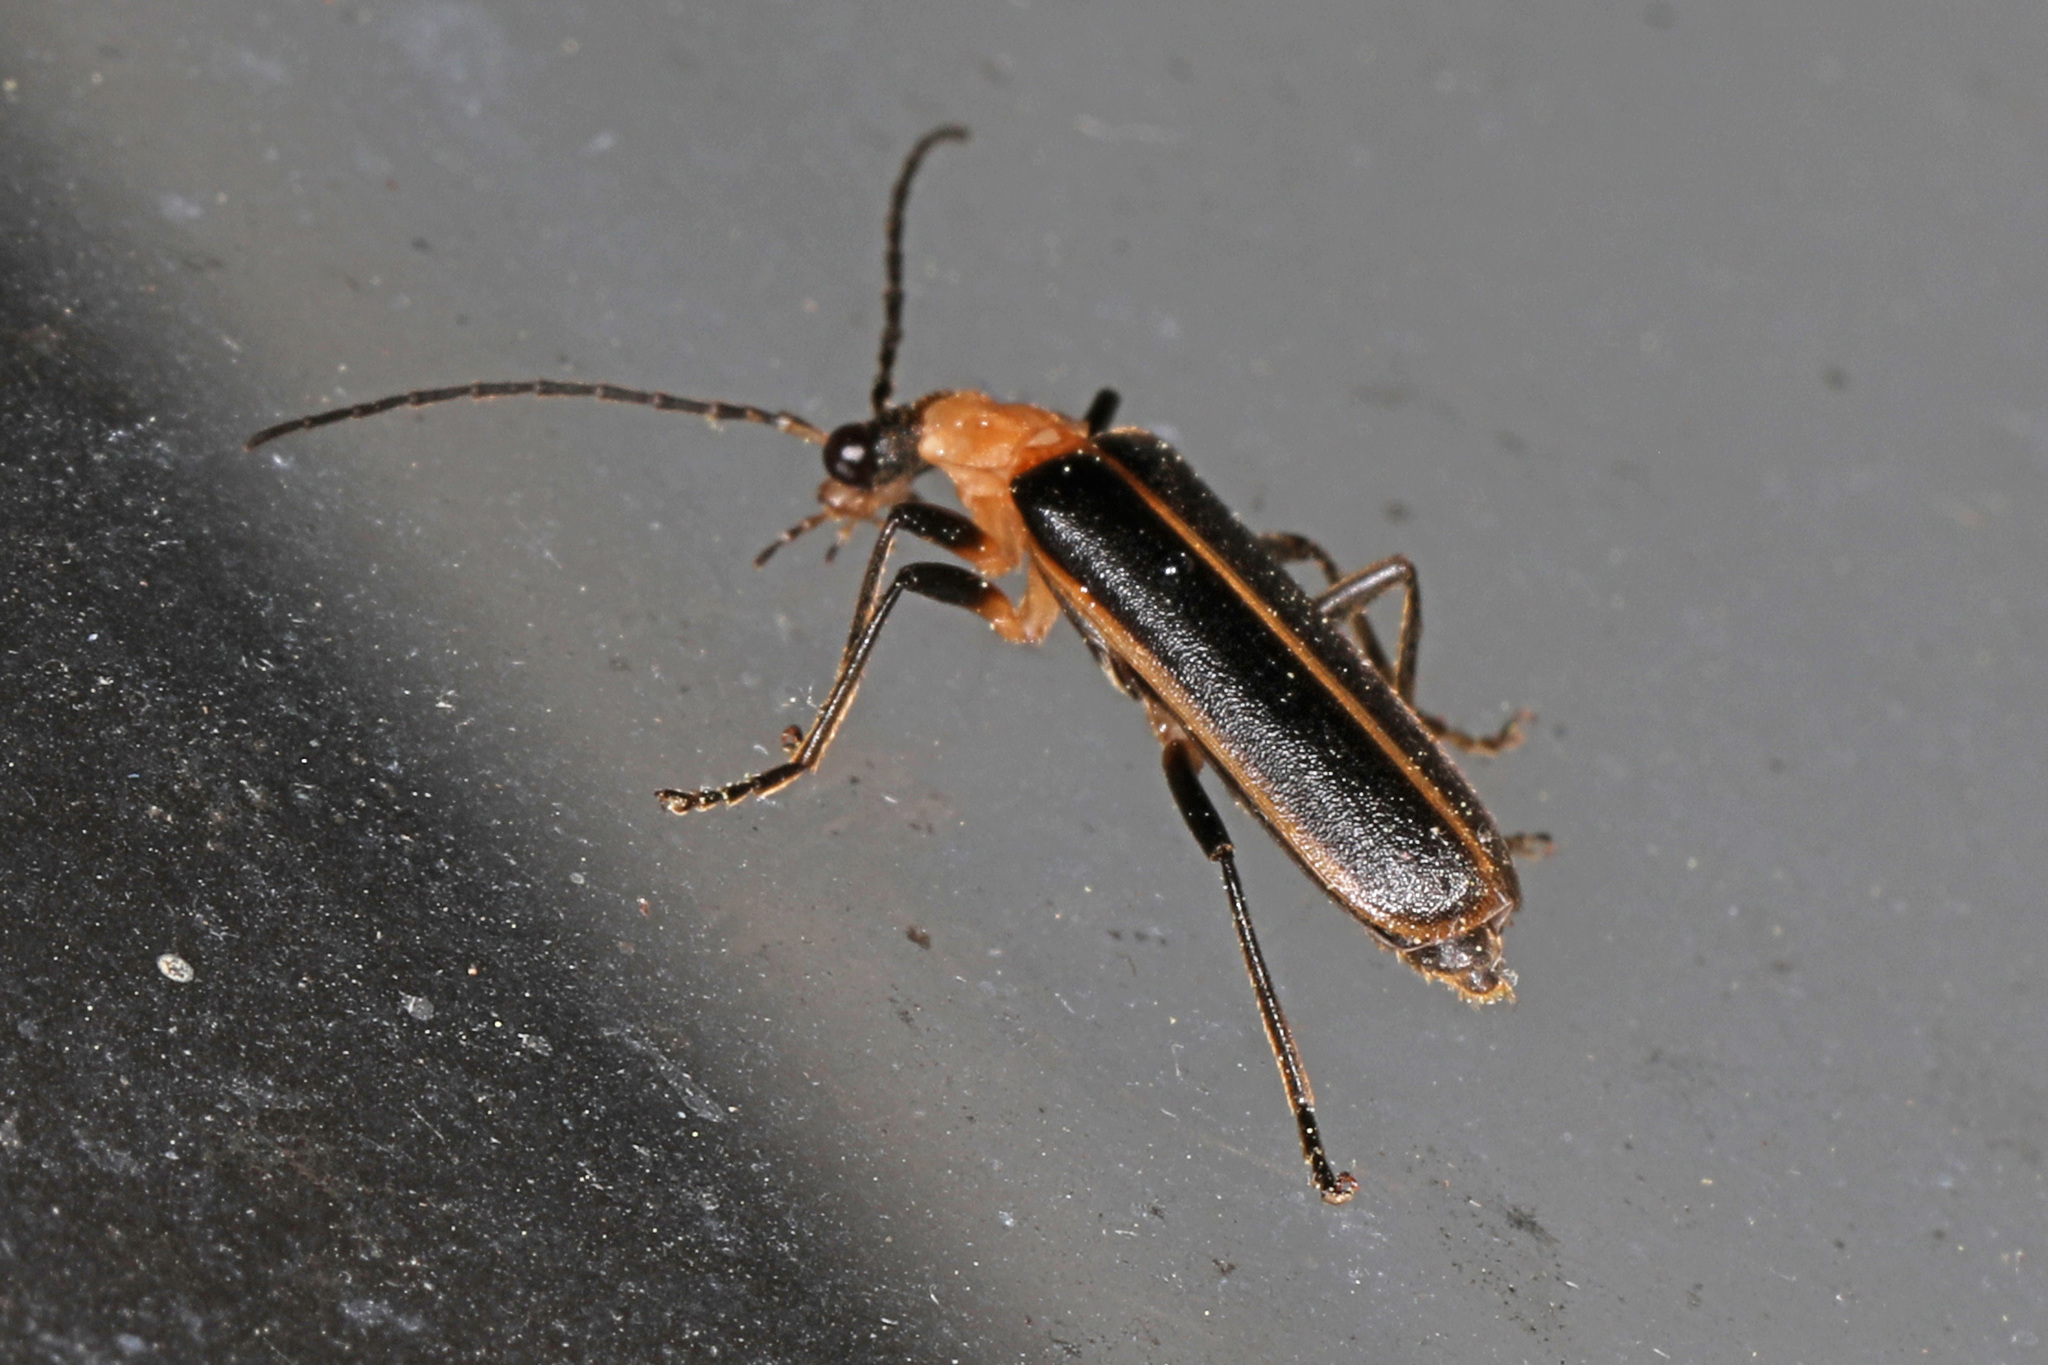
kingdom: Animalia
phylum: Arthropoda
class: Insecta
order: Coleoptera
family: Cantharidae
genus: Podabrus
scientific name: Podabrus flavicollis
